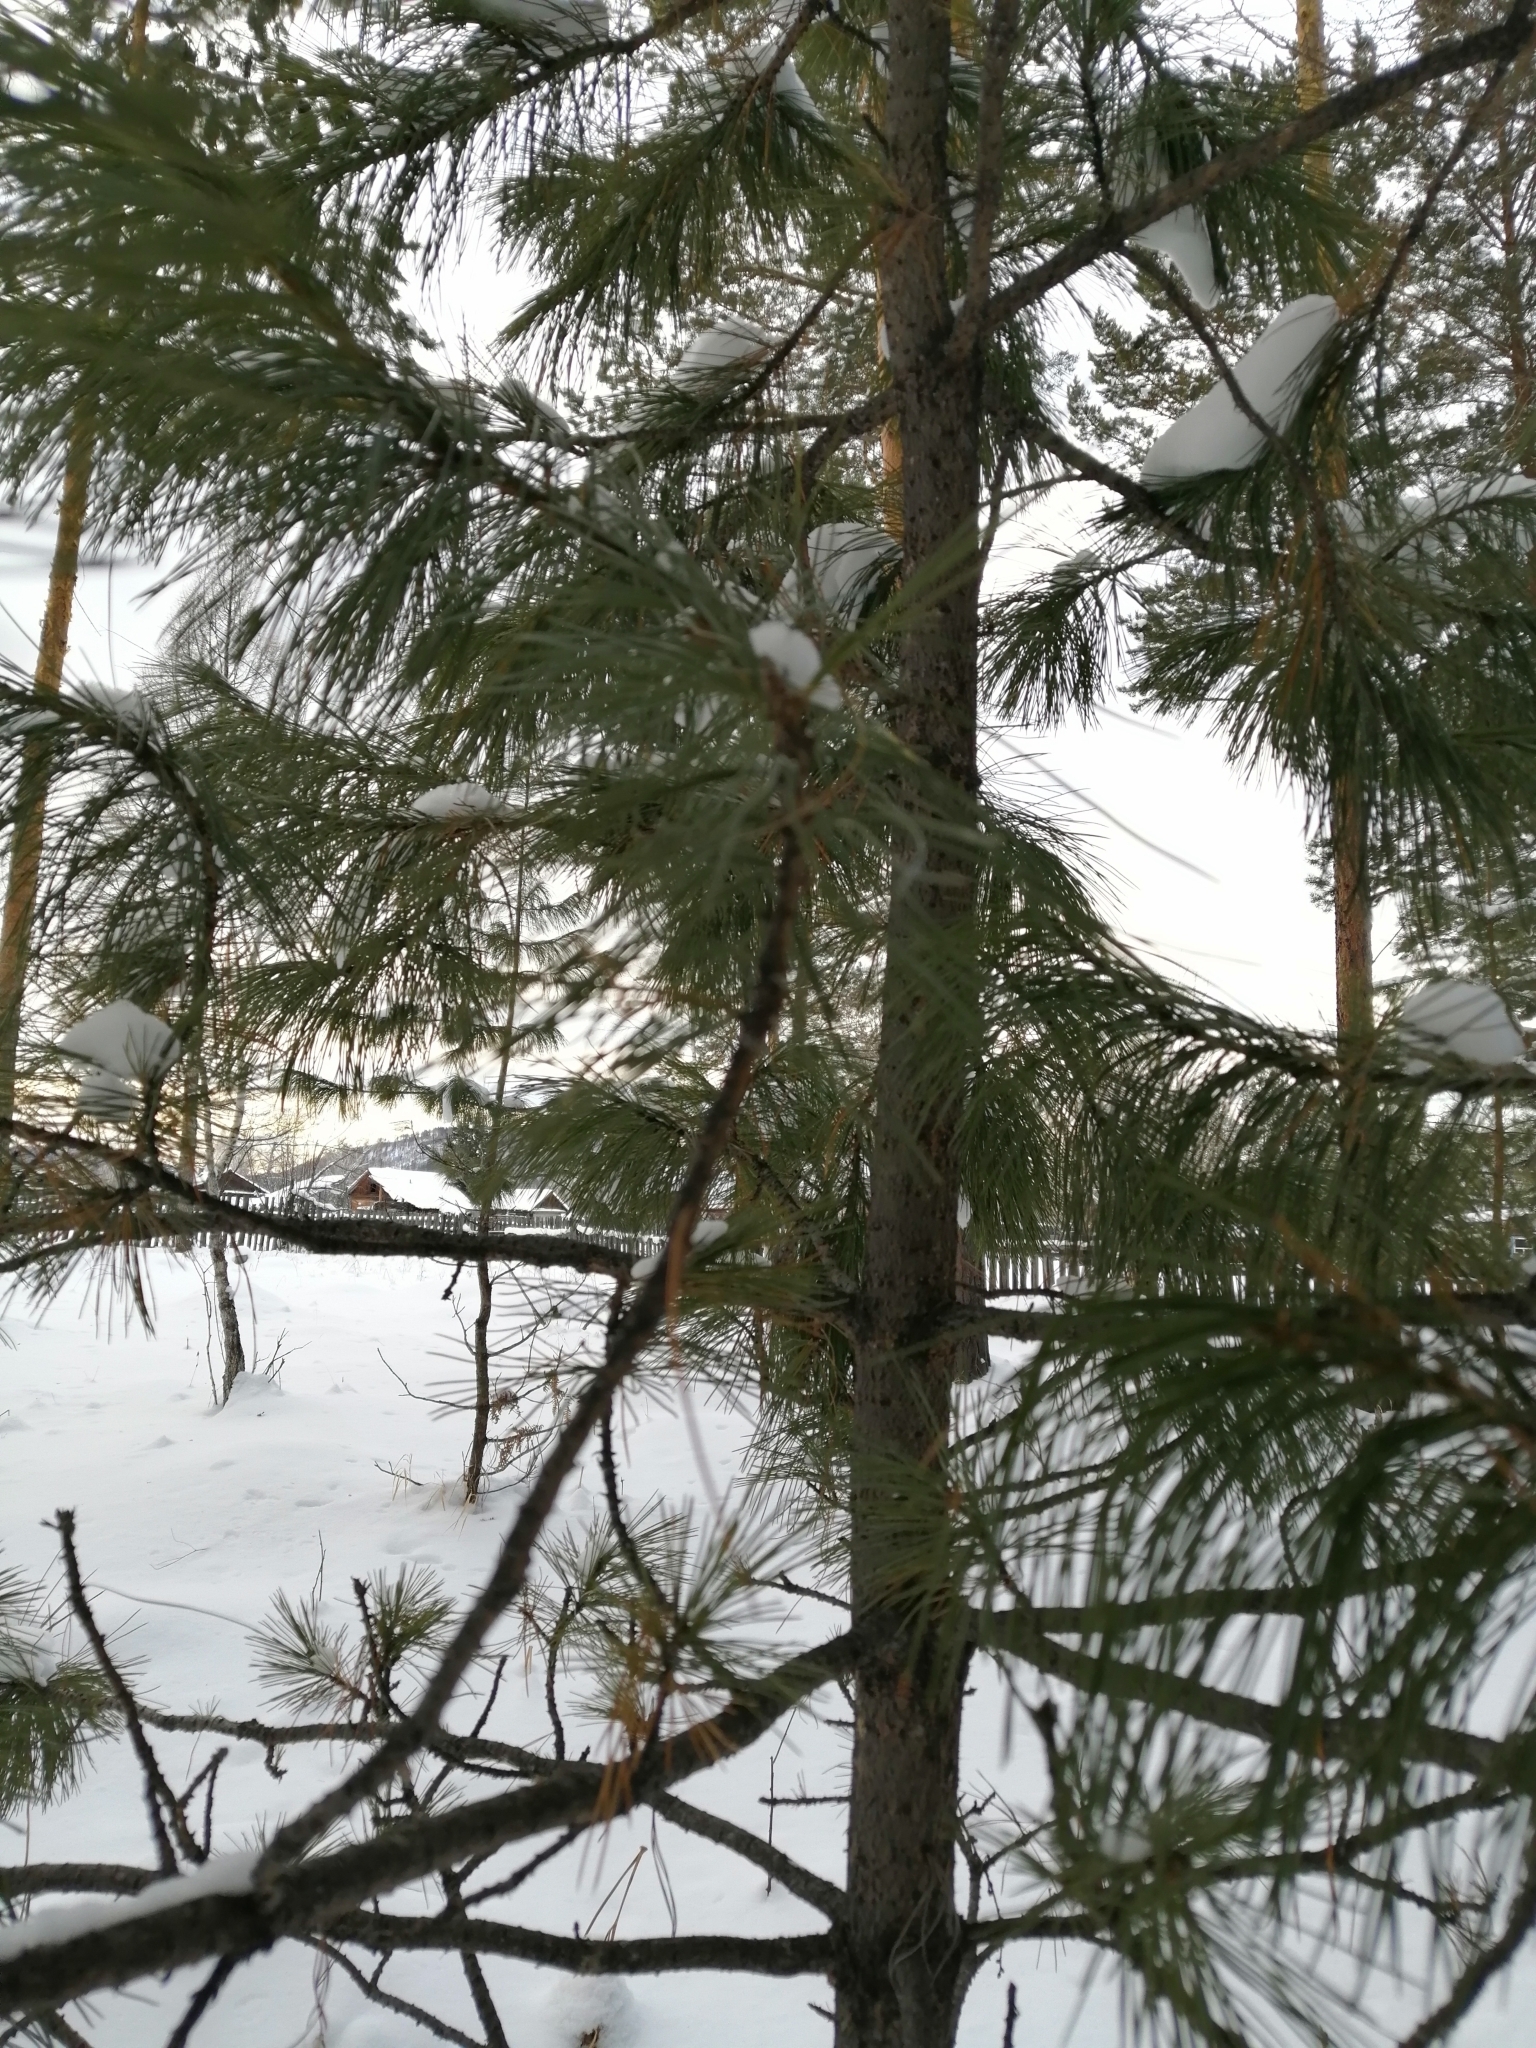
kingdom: Plantae
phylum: Tracheophyta
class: Pinopsida
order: Pinales
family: Pinaceae
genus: Pinus
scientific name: Pinus sibirica
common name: Siberian pine
